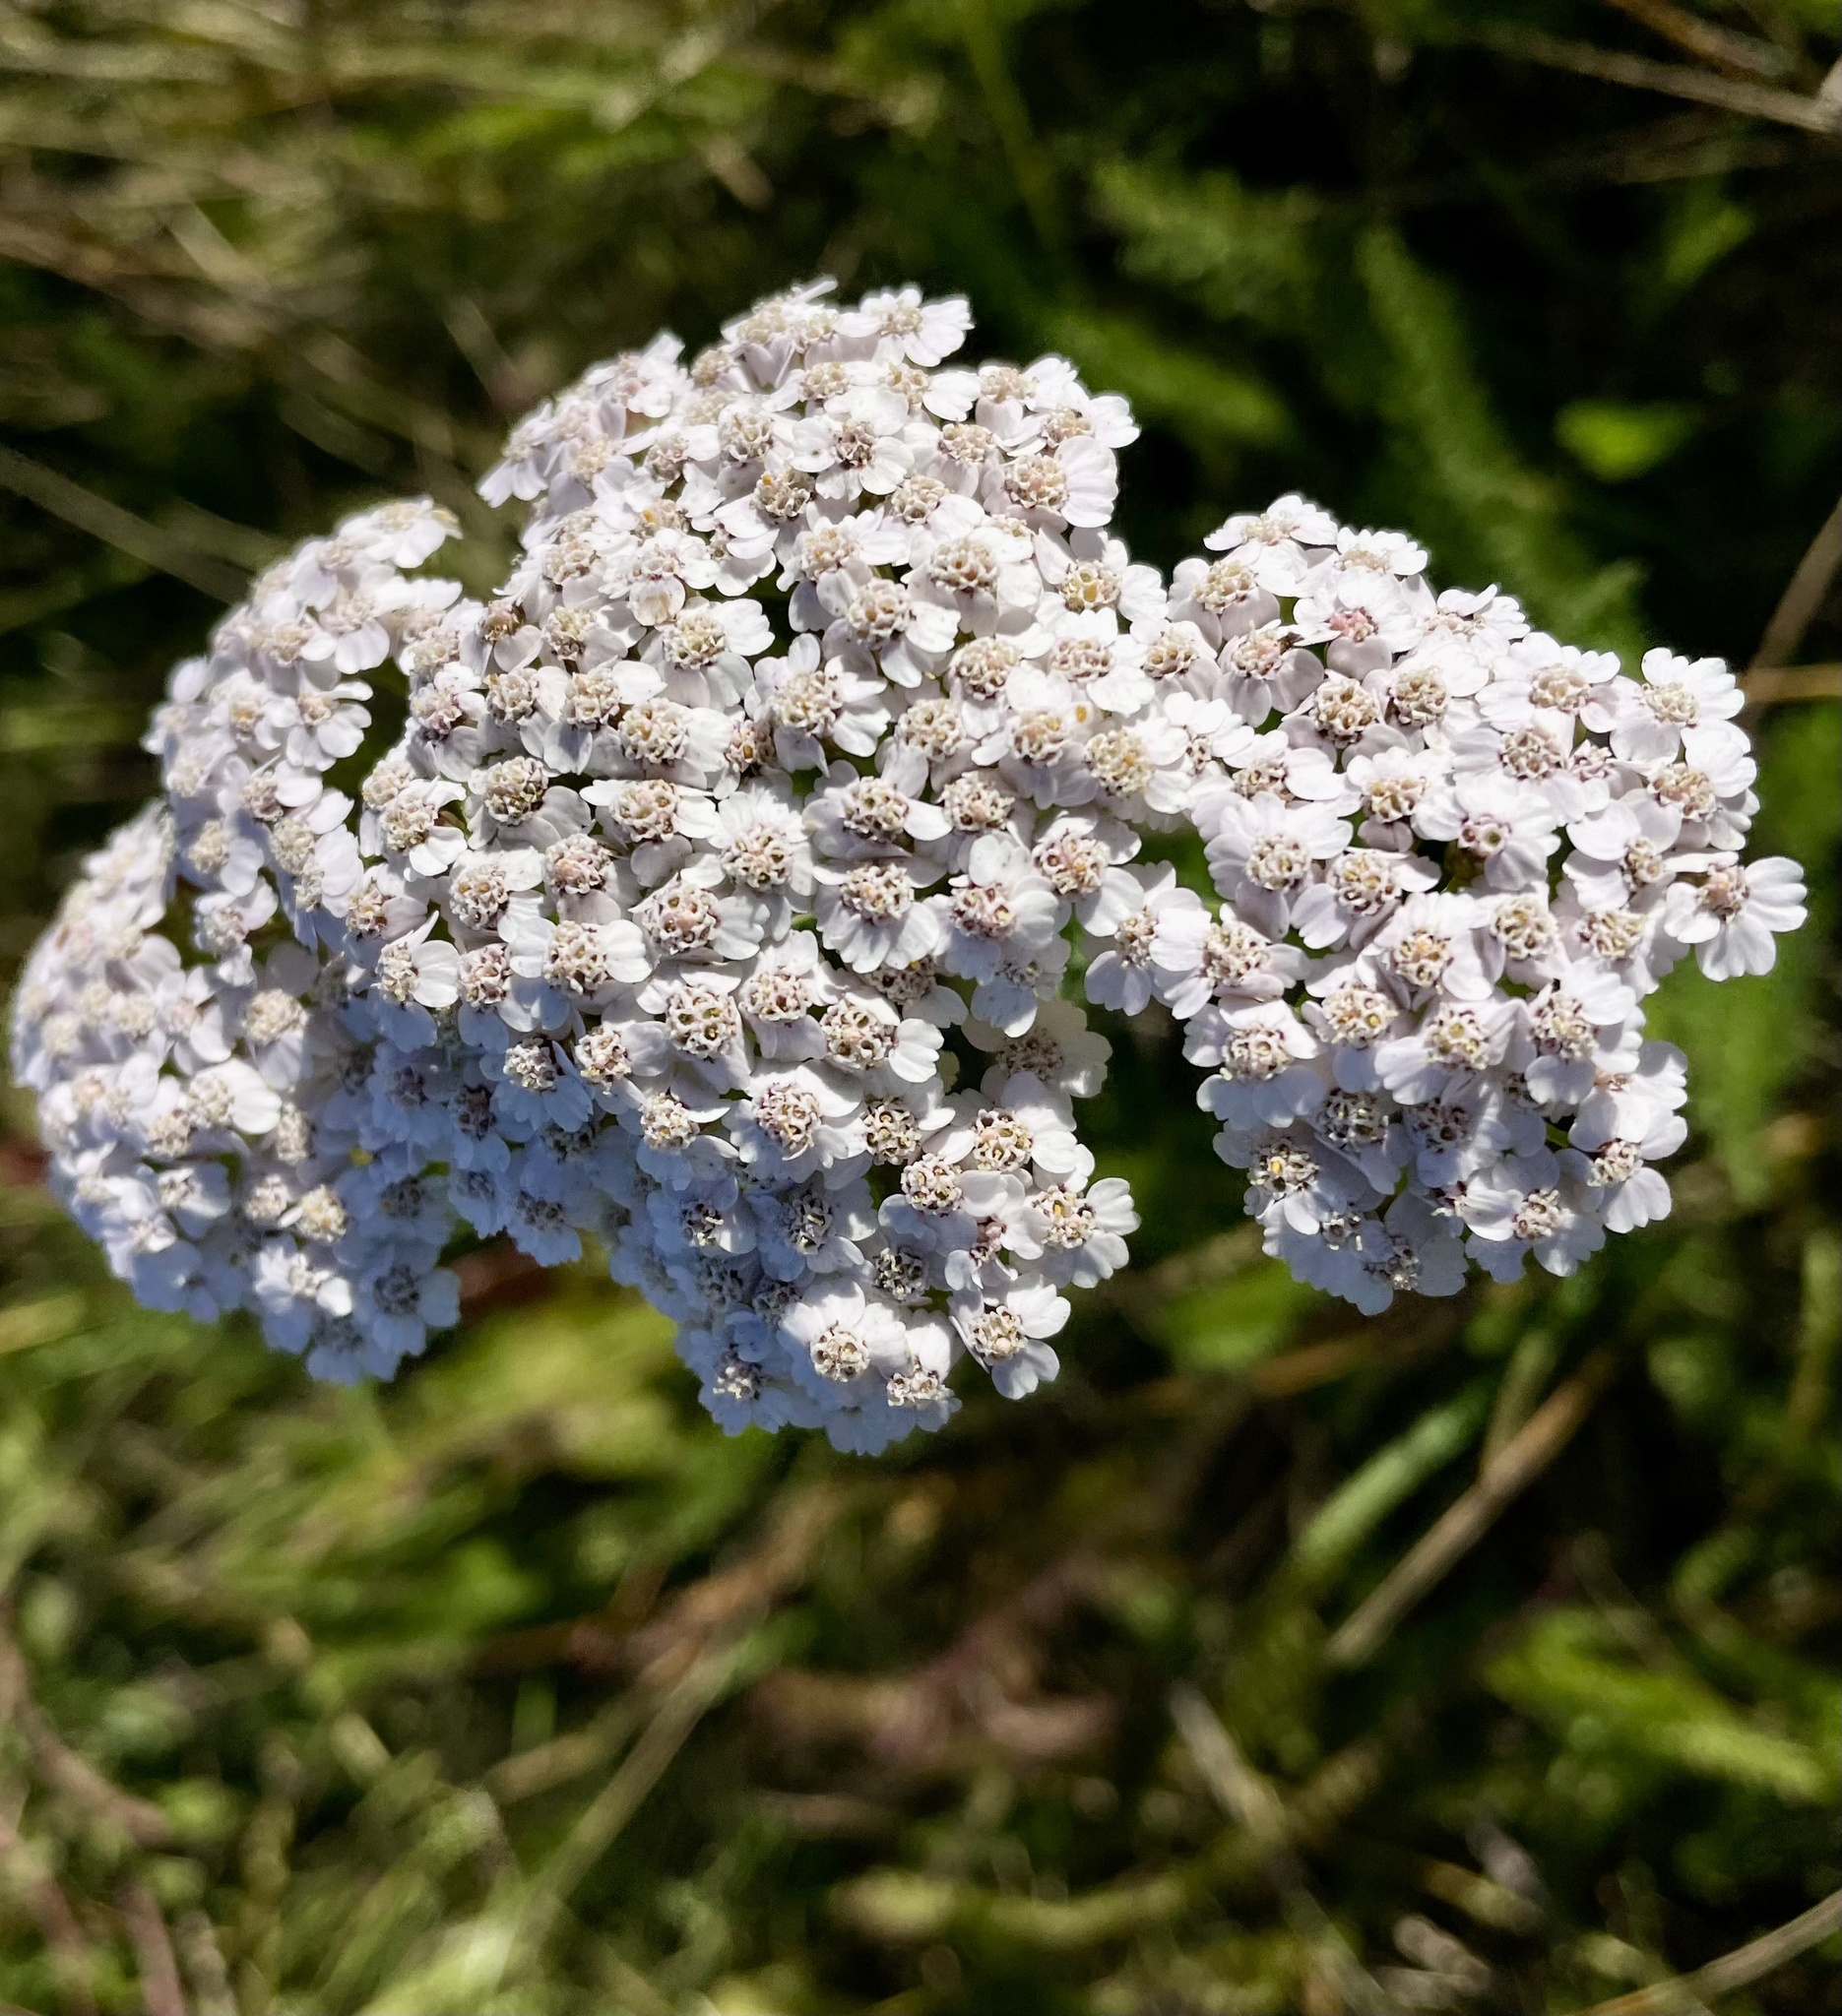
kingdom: Plantae
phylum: Tracheophyta
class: Magnoliopsida
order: Asterales
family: Asteraceae
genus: Achillea
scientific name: Achillea millefolium
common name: Yarrow
